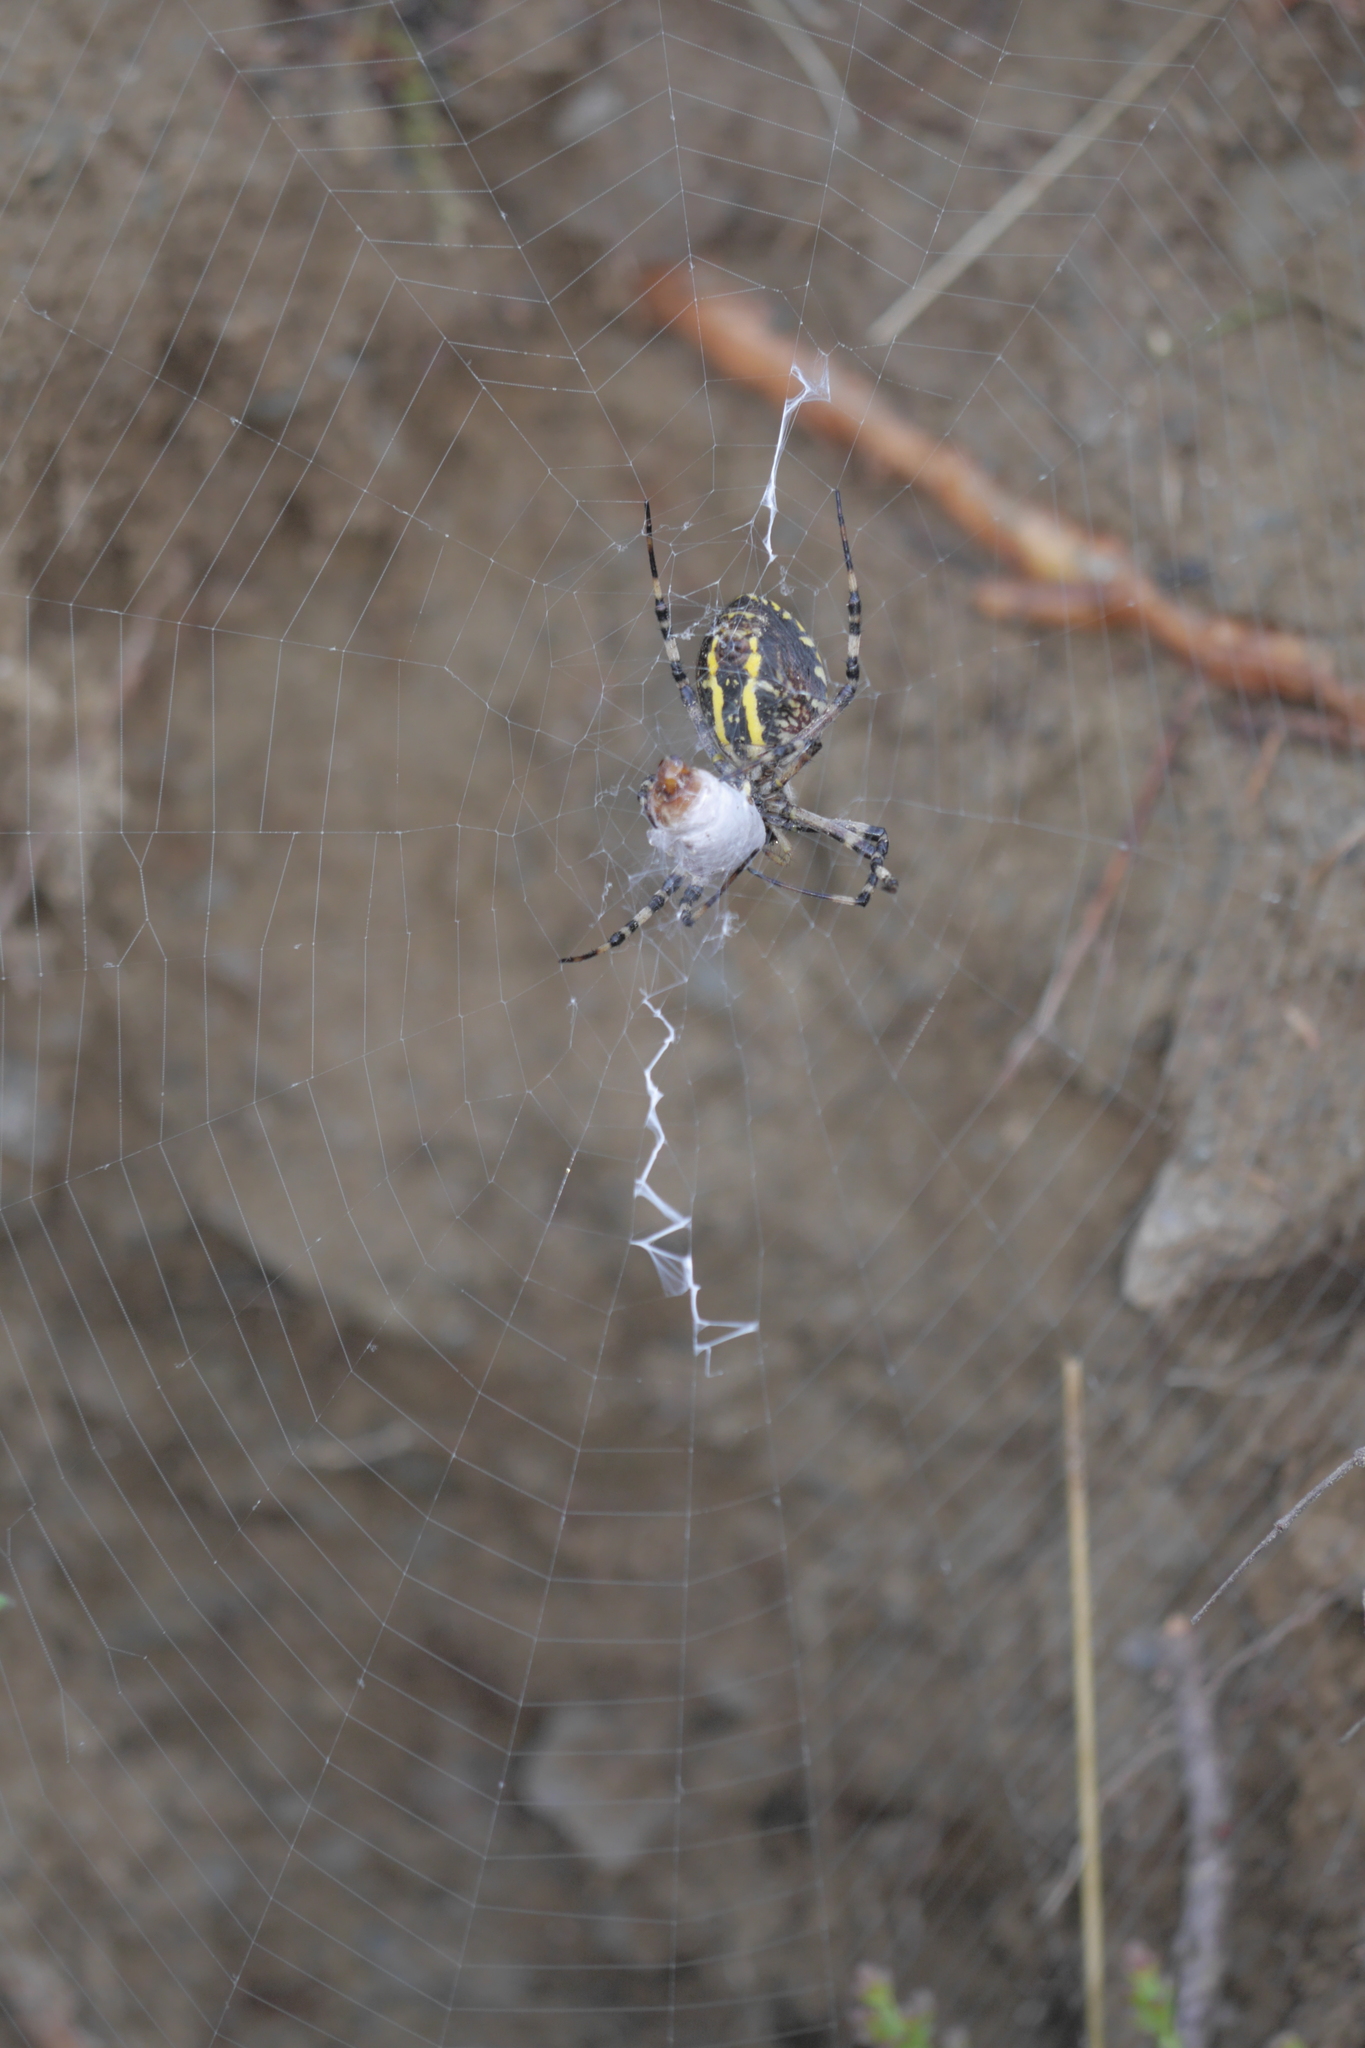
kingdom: Animalia
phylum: Arthropoda
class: Arachnida
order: Araneae
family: Araneidae
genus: Argiope
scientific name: Argiope bruennichi
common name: Wasp spider
